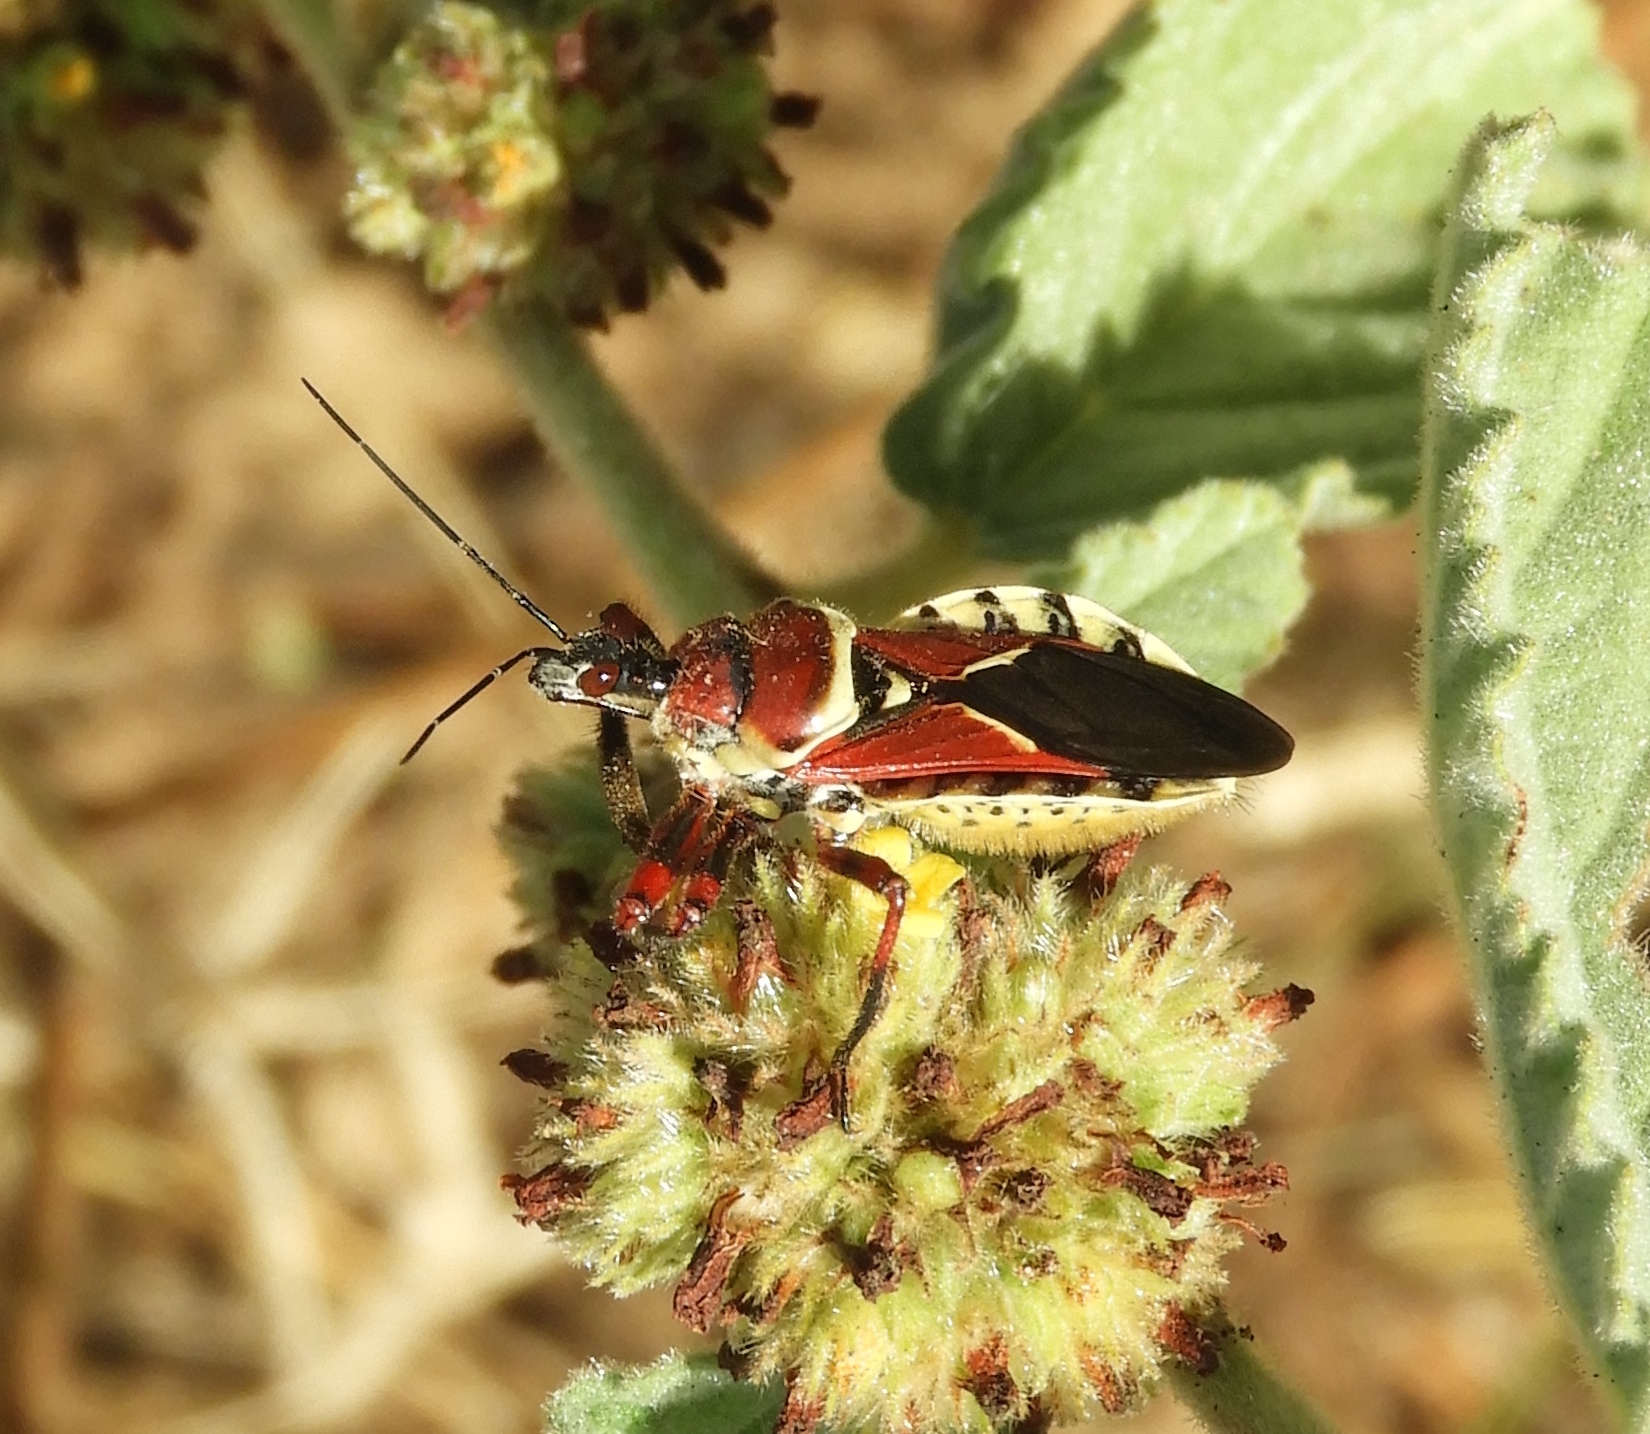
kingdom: Animalia
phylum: Arthropoda
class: Insecta
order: Hemiptera
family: Reduviidae
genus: Apiomerus
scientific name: Apiomerus flaviventris
